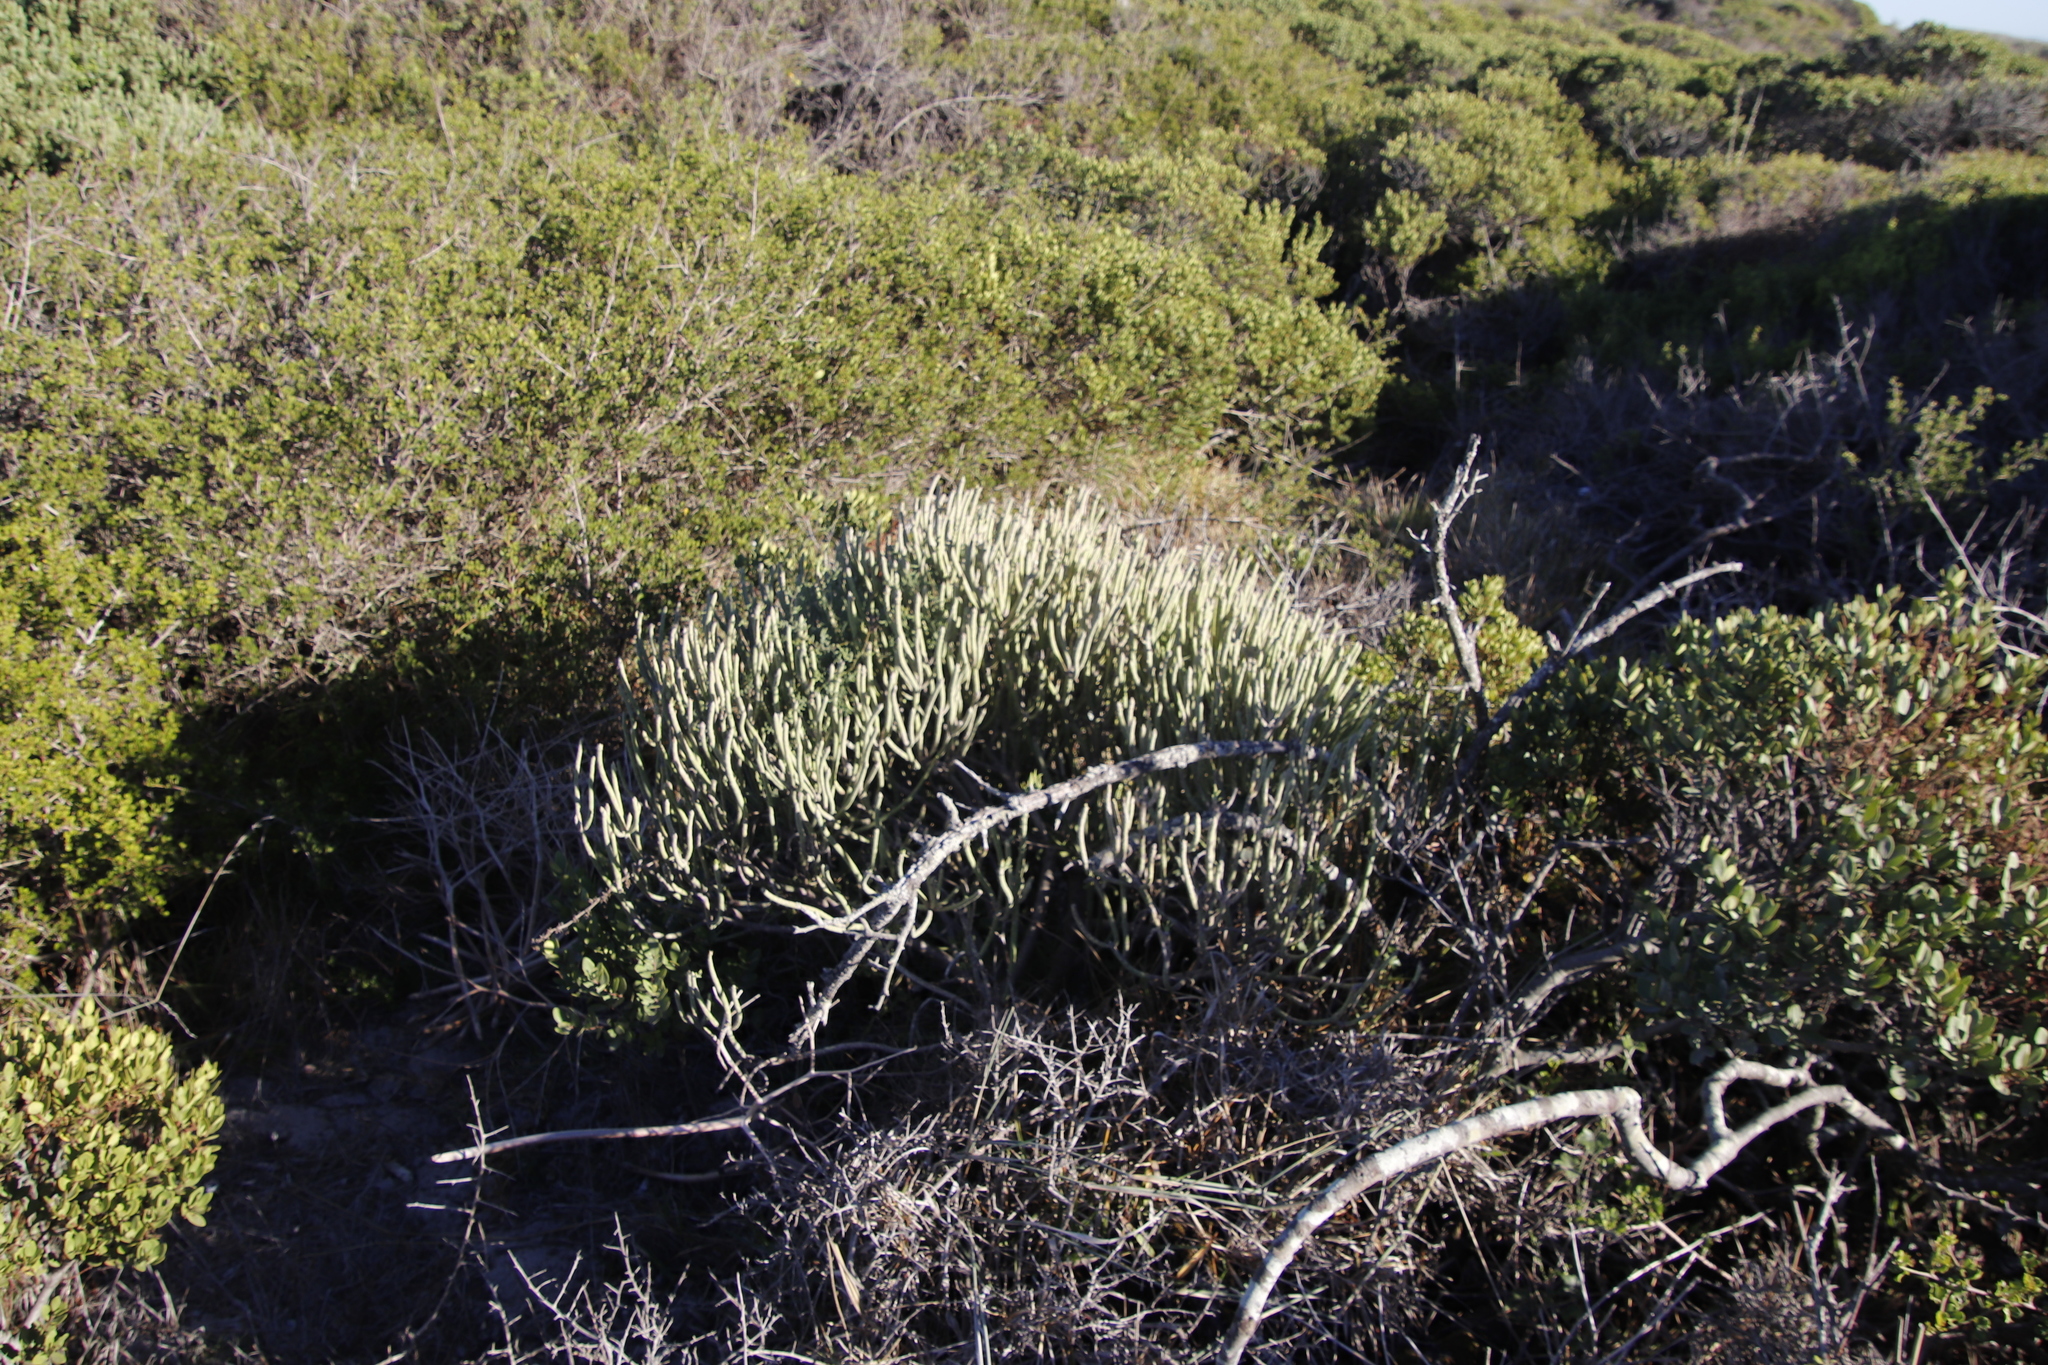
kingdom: Plantae
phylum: Tracheophyta
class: Magnoliopsida
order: Malpighiales
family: Euphorbiaceae
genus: Euphorbia
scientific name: Euphorbia mauritanica
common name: Jackal's-food
